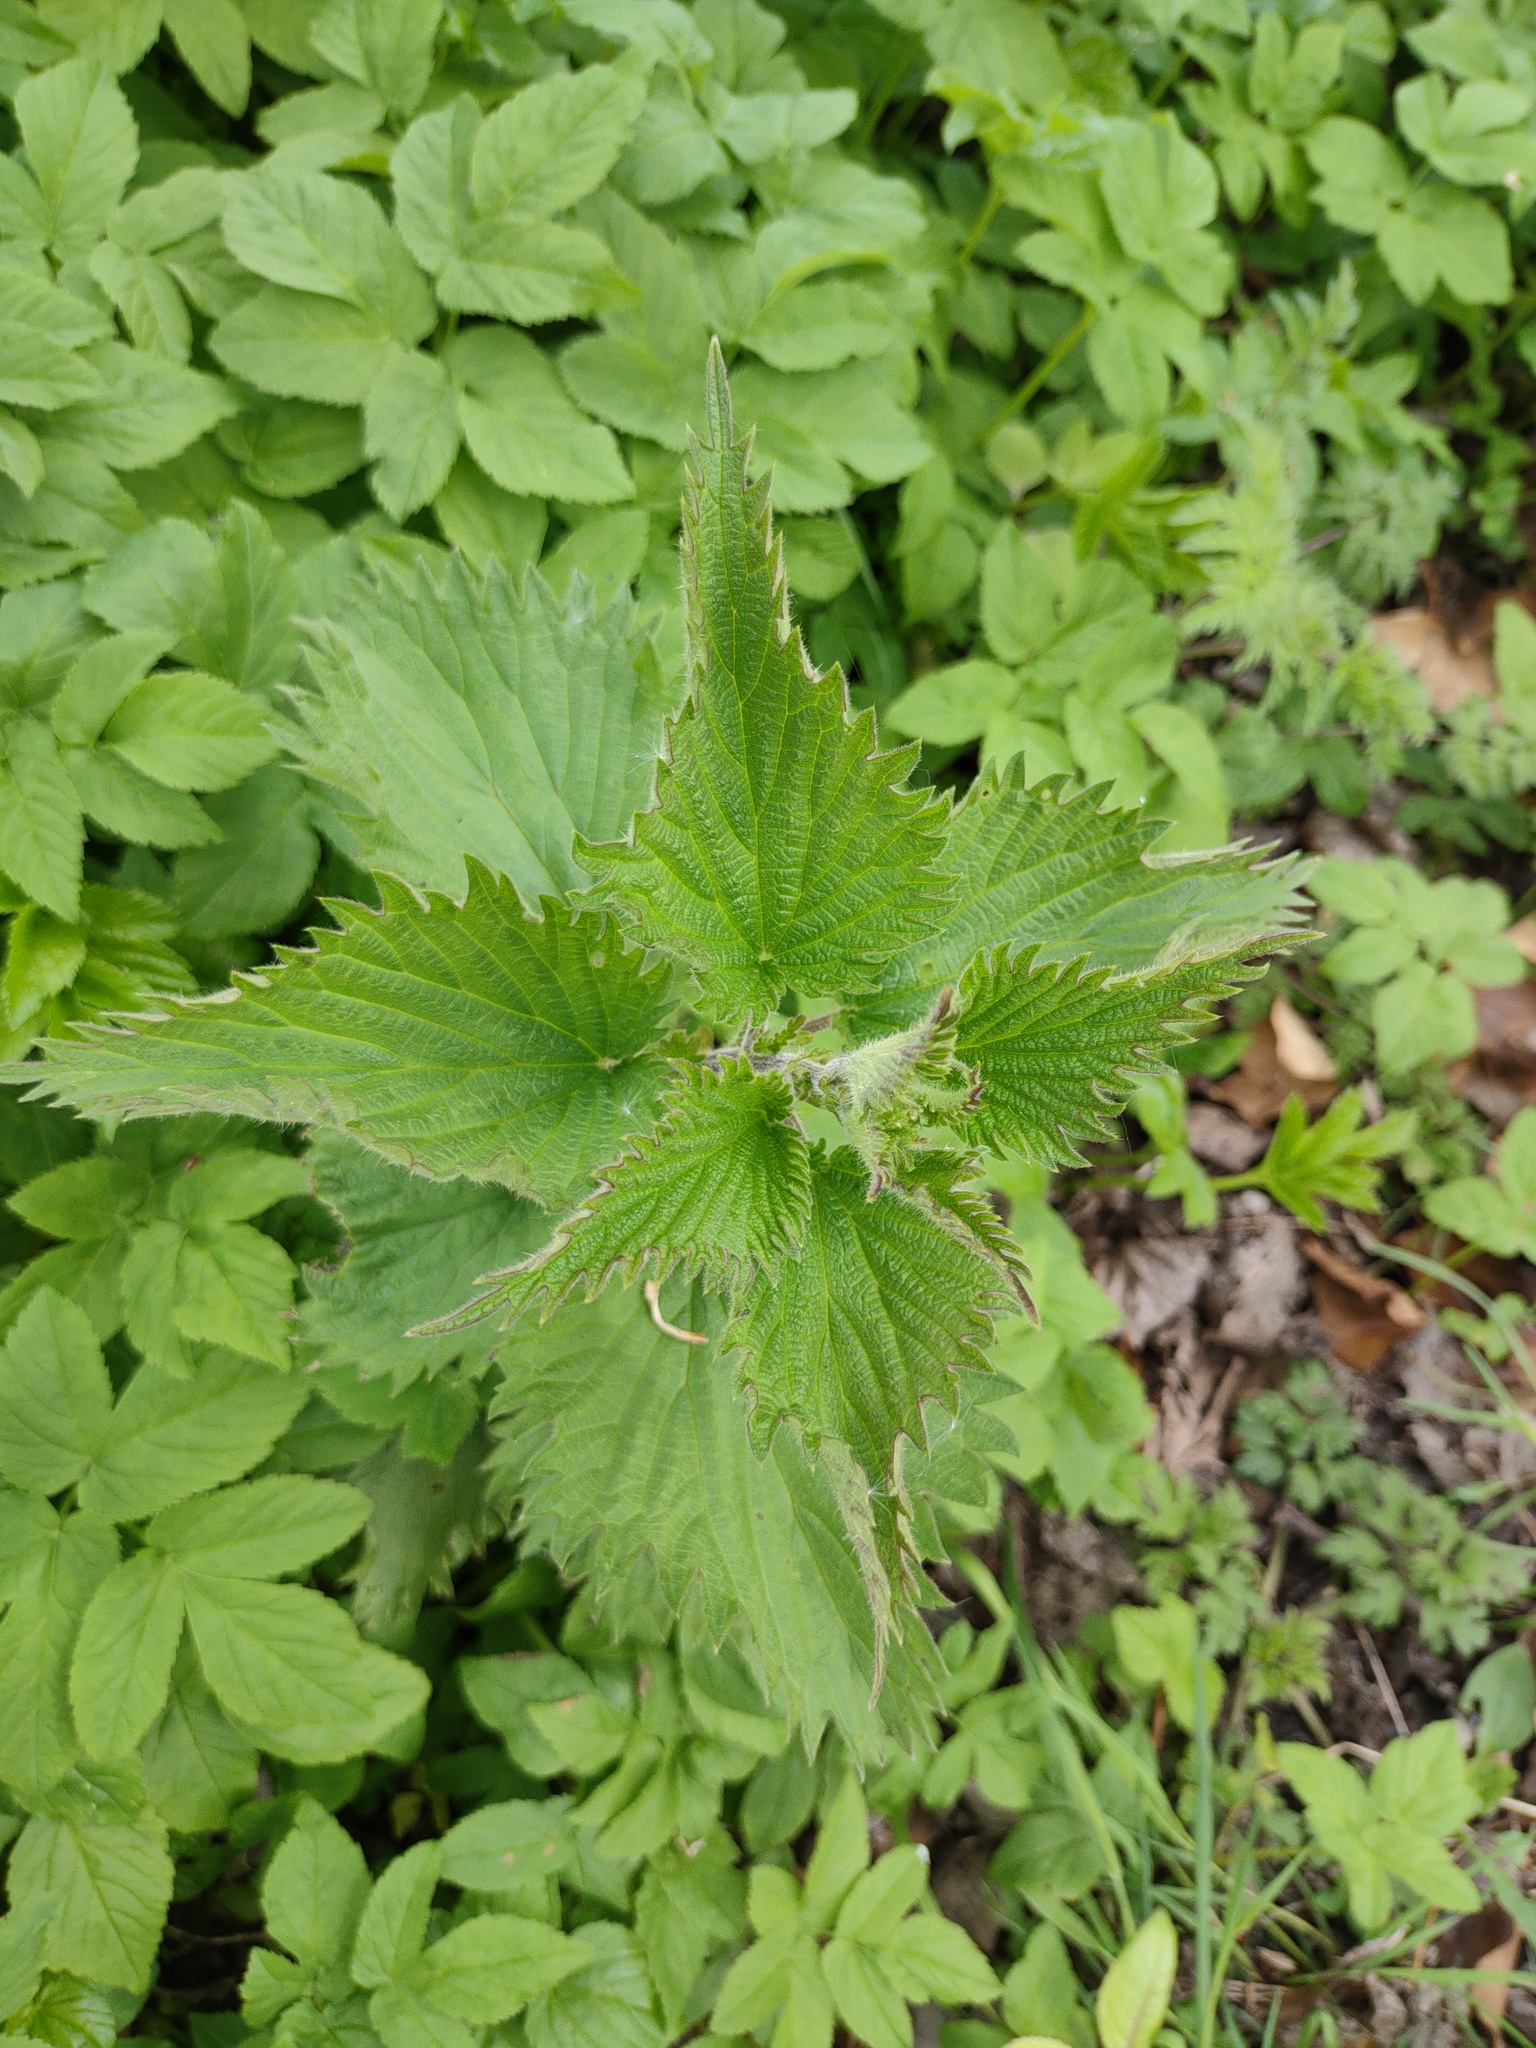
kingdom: Plantae
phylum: Tracheophyta
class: Magnoliopsida
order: Rosales
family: Urticaceae
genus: Urtica
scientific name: Urtica dioica
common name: Common nettle
